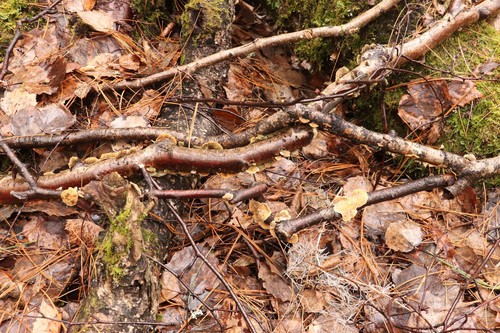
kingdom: Fungi
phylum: Basidiomycota
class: Agaricomycetes
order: Russulales
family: Stereaceae
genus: Stereum
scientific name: Stereum hirsutum
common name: Hairy curtain crust
